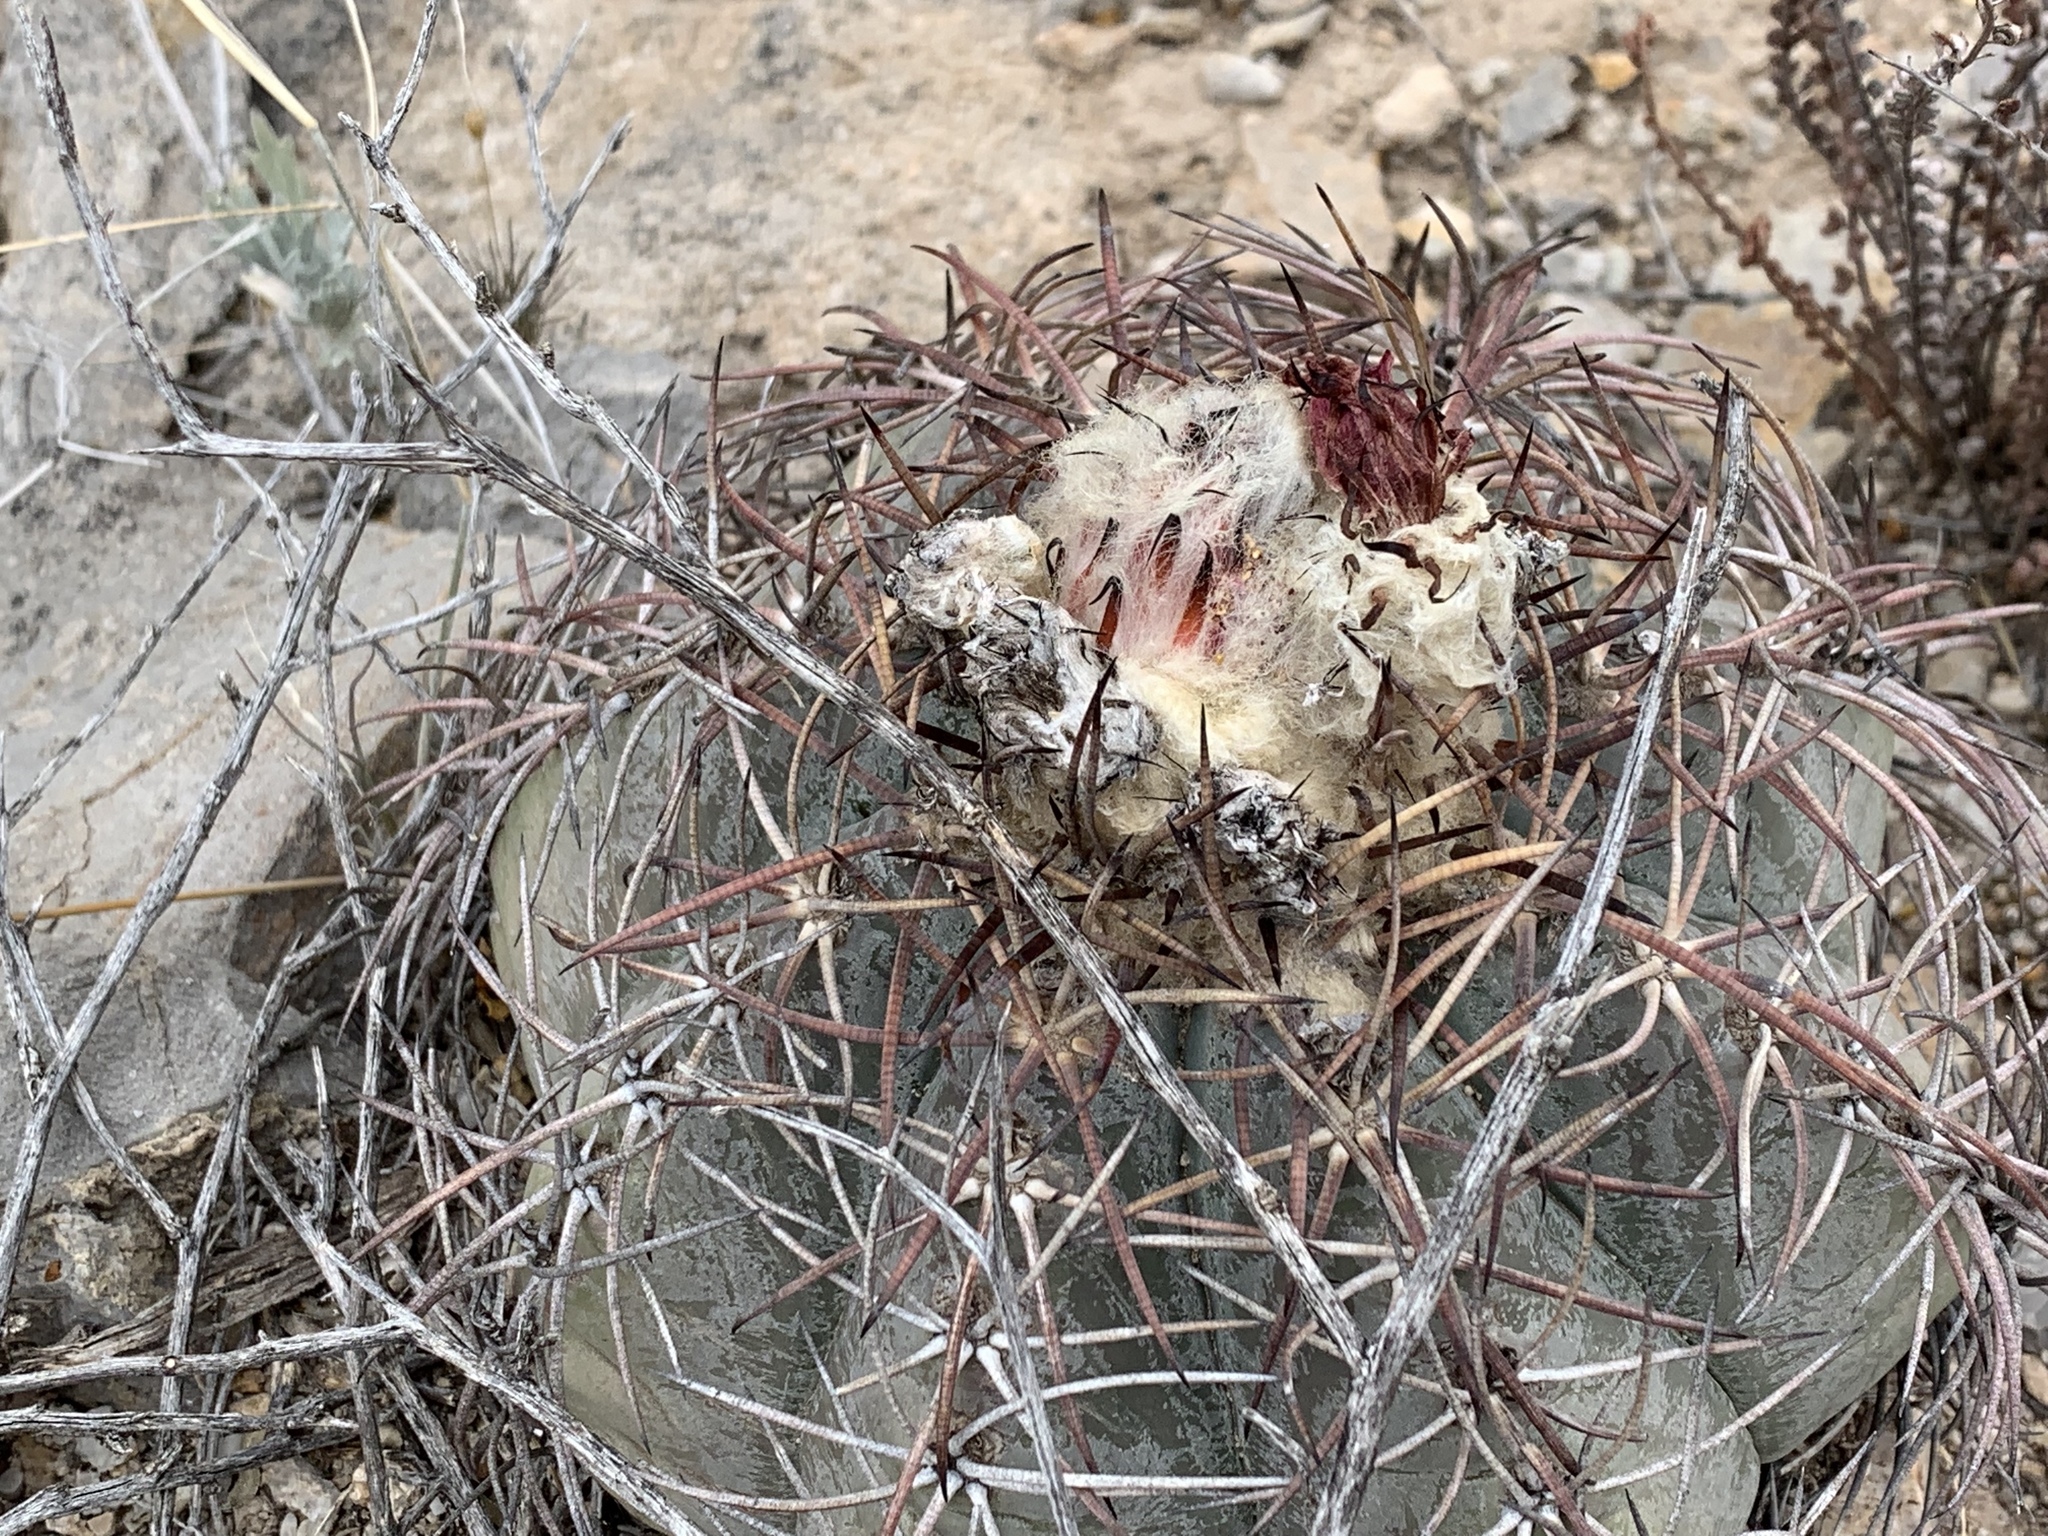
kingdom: Plantae
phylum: Tracheophyta
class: Magnoliopsida
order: Caryophyllales
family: Cactaceae
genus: Echinocactus
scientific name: Echinocactus horizonthalonius
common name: Devilshead
